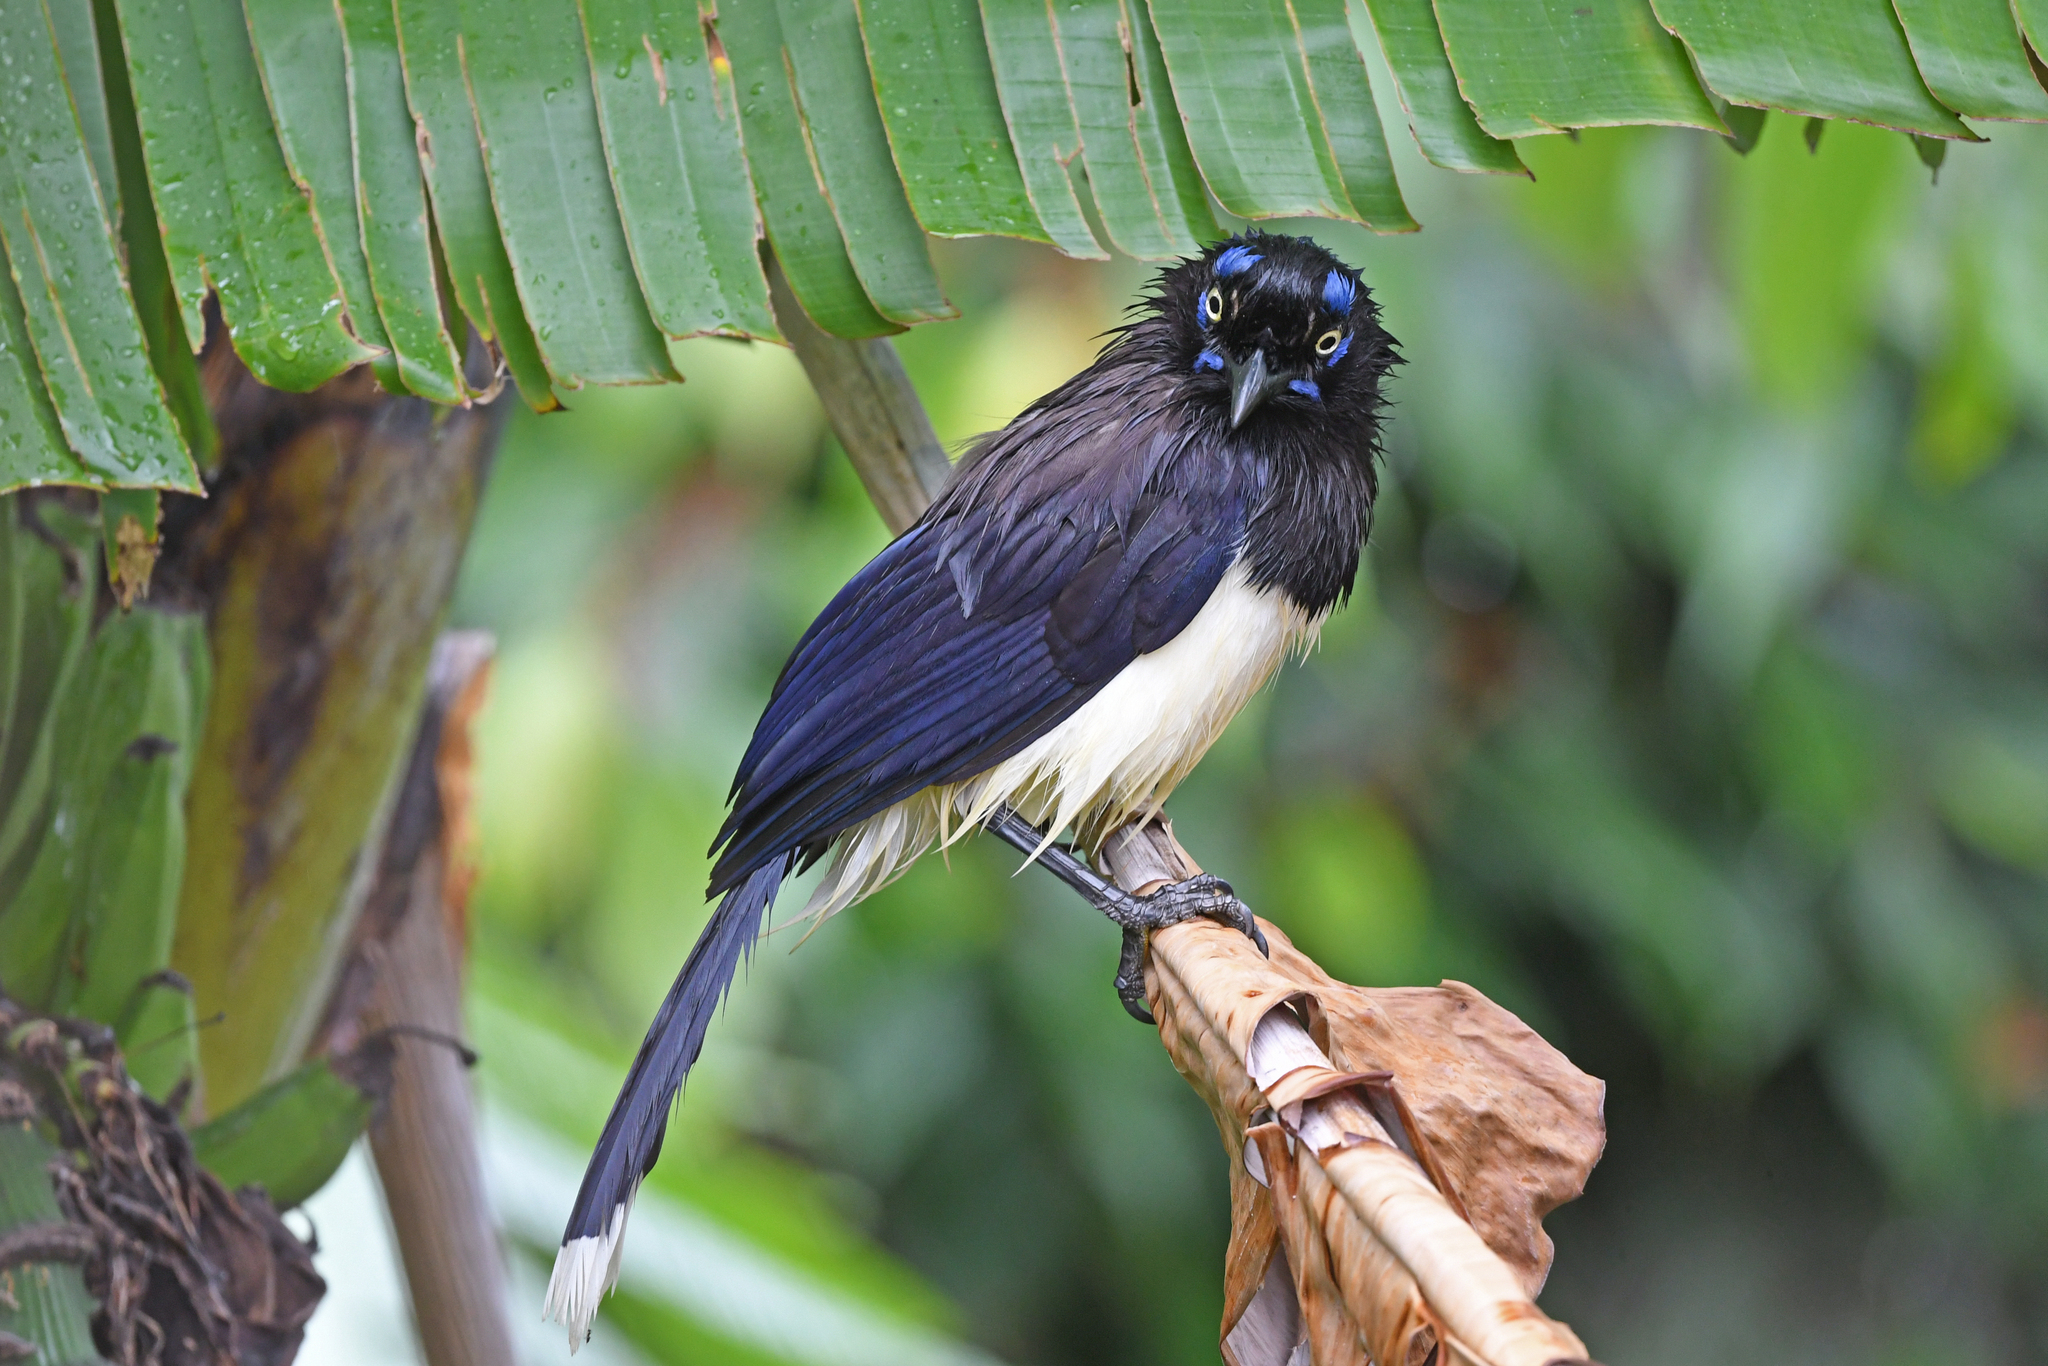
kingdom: Animalia
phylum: Chordata
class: Aves
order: Passeriformes
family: Corvidae
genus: Cyanocorax
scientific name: Cyanocorax affinis
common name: Black-chested jay
